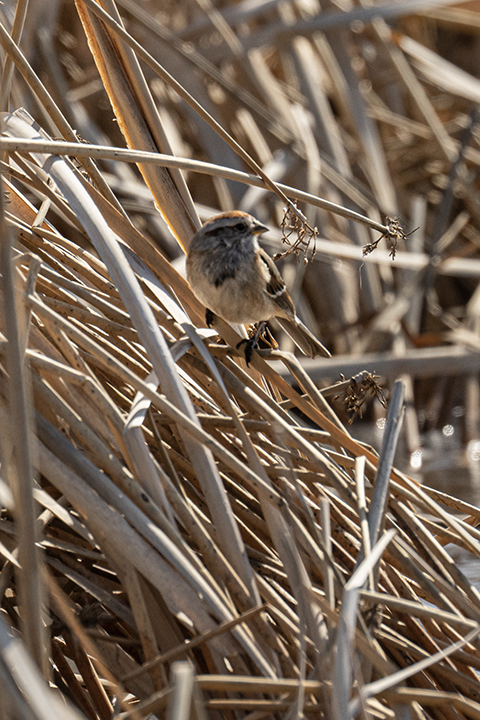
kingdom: Animalia
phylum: Chordata
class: Aves
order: Passeriformes
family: Passerellidae
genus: Spizelloides
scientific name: Spizelloides arborea
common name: American tree sparrow
